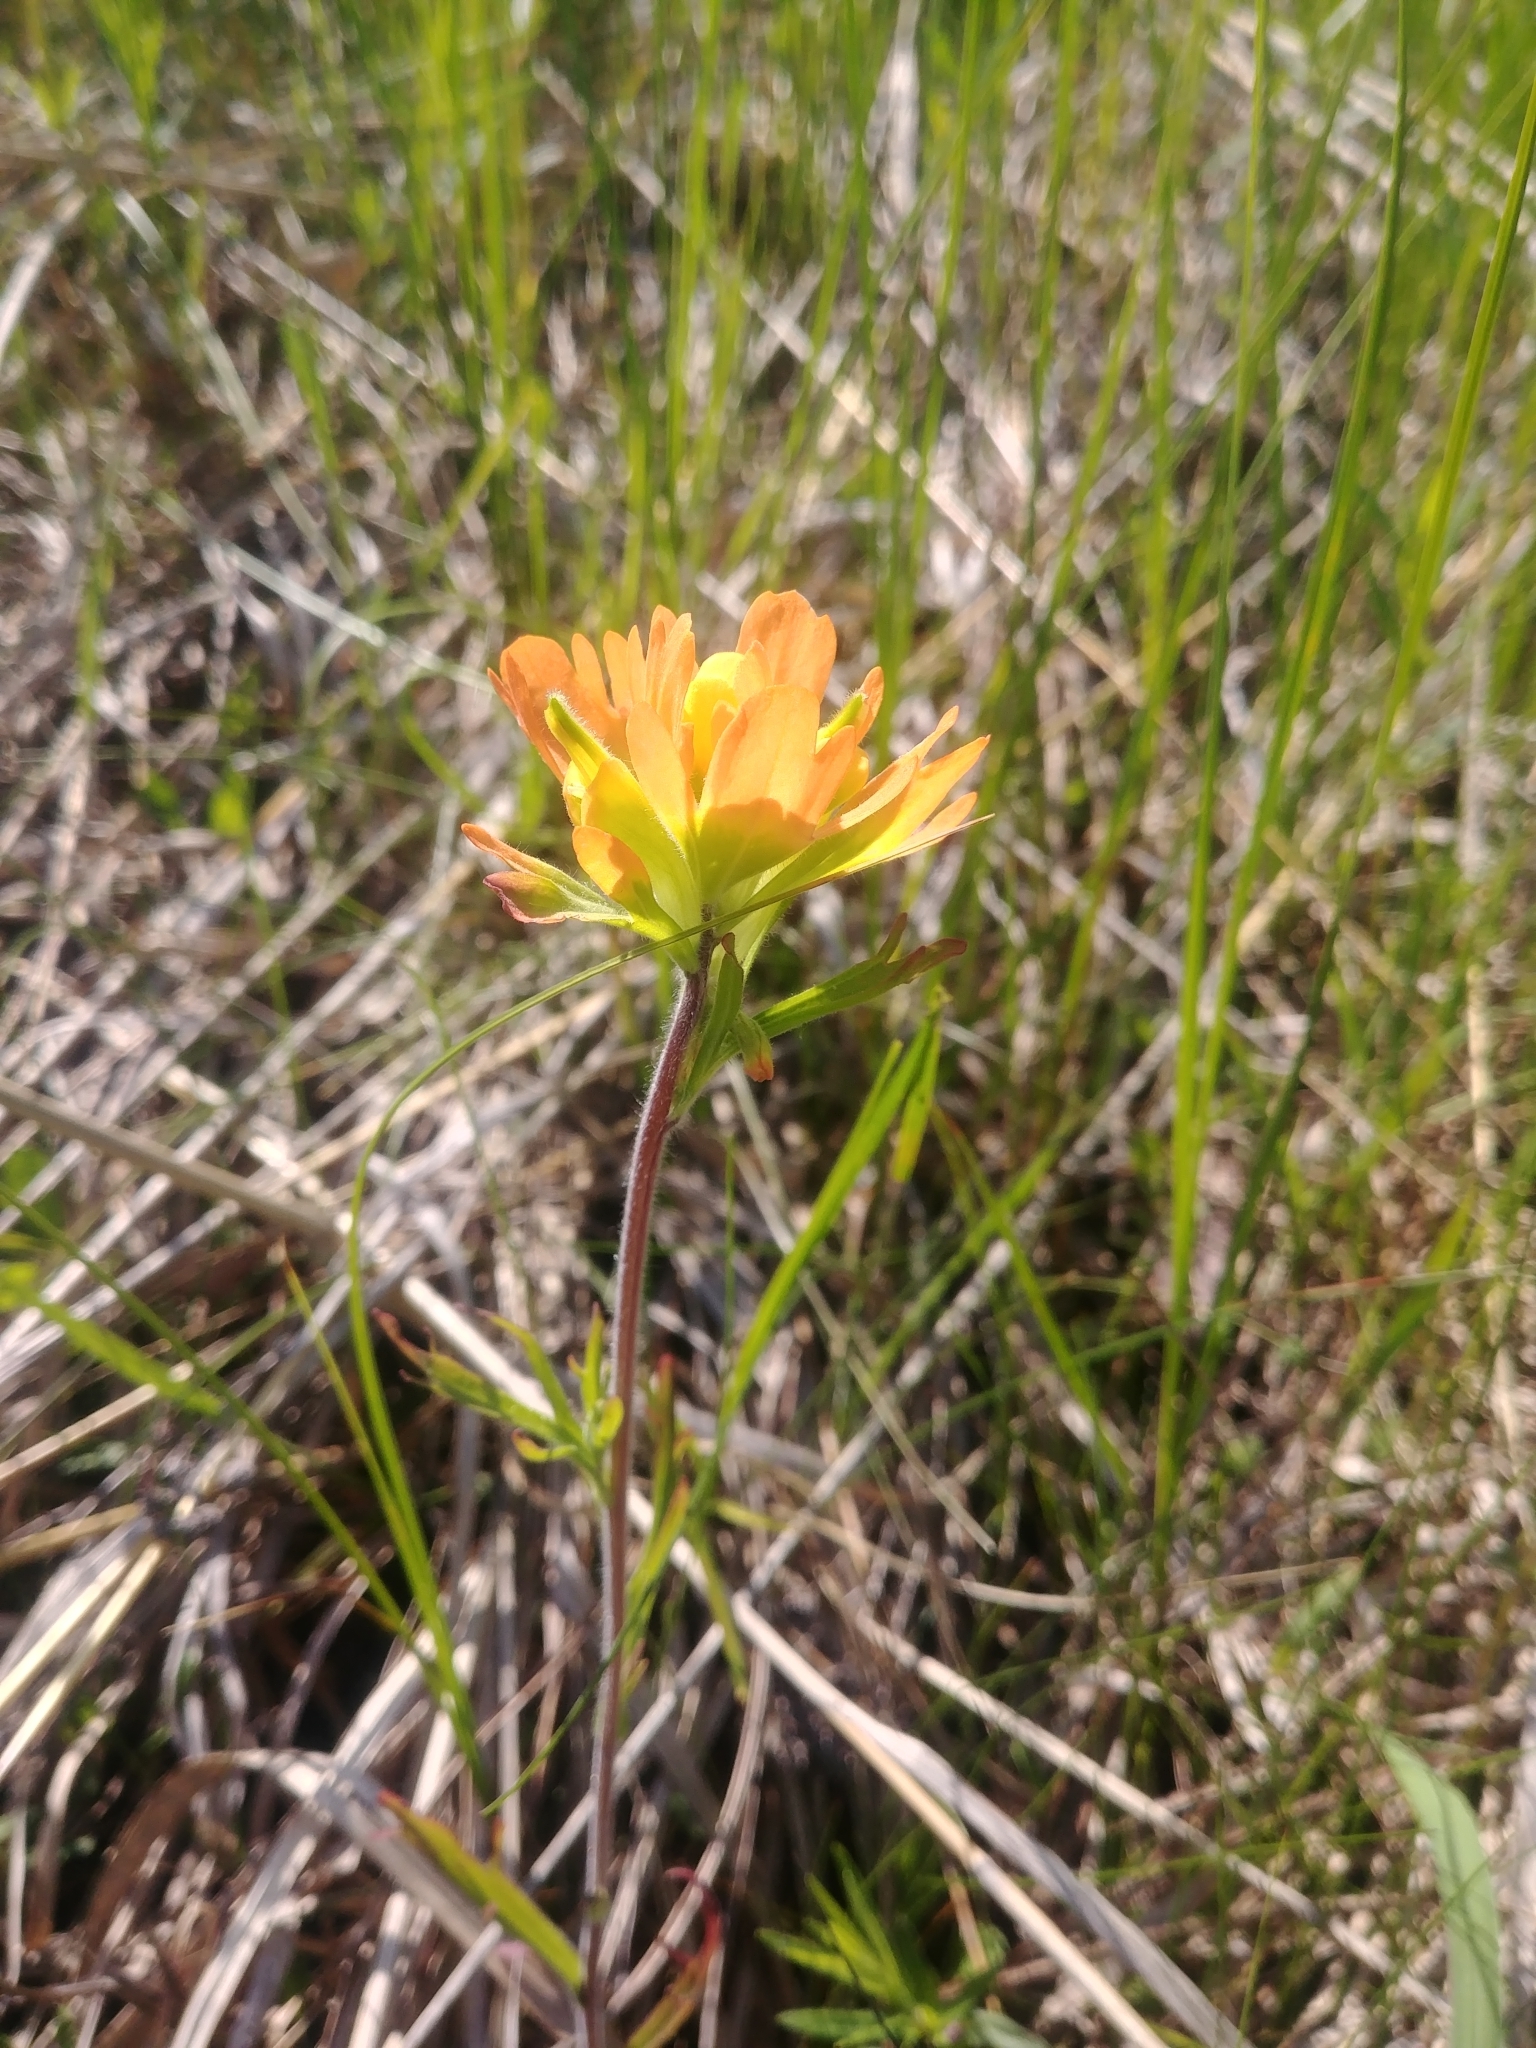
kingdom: Plantae
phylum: Tracheophyta
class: Magnoliopsida
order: Lamiales
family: Orobanchaceae
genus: Castilleja
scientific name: Castilleja coccinea
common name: Scarlet paintbrush
